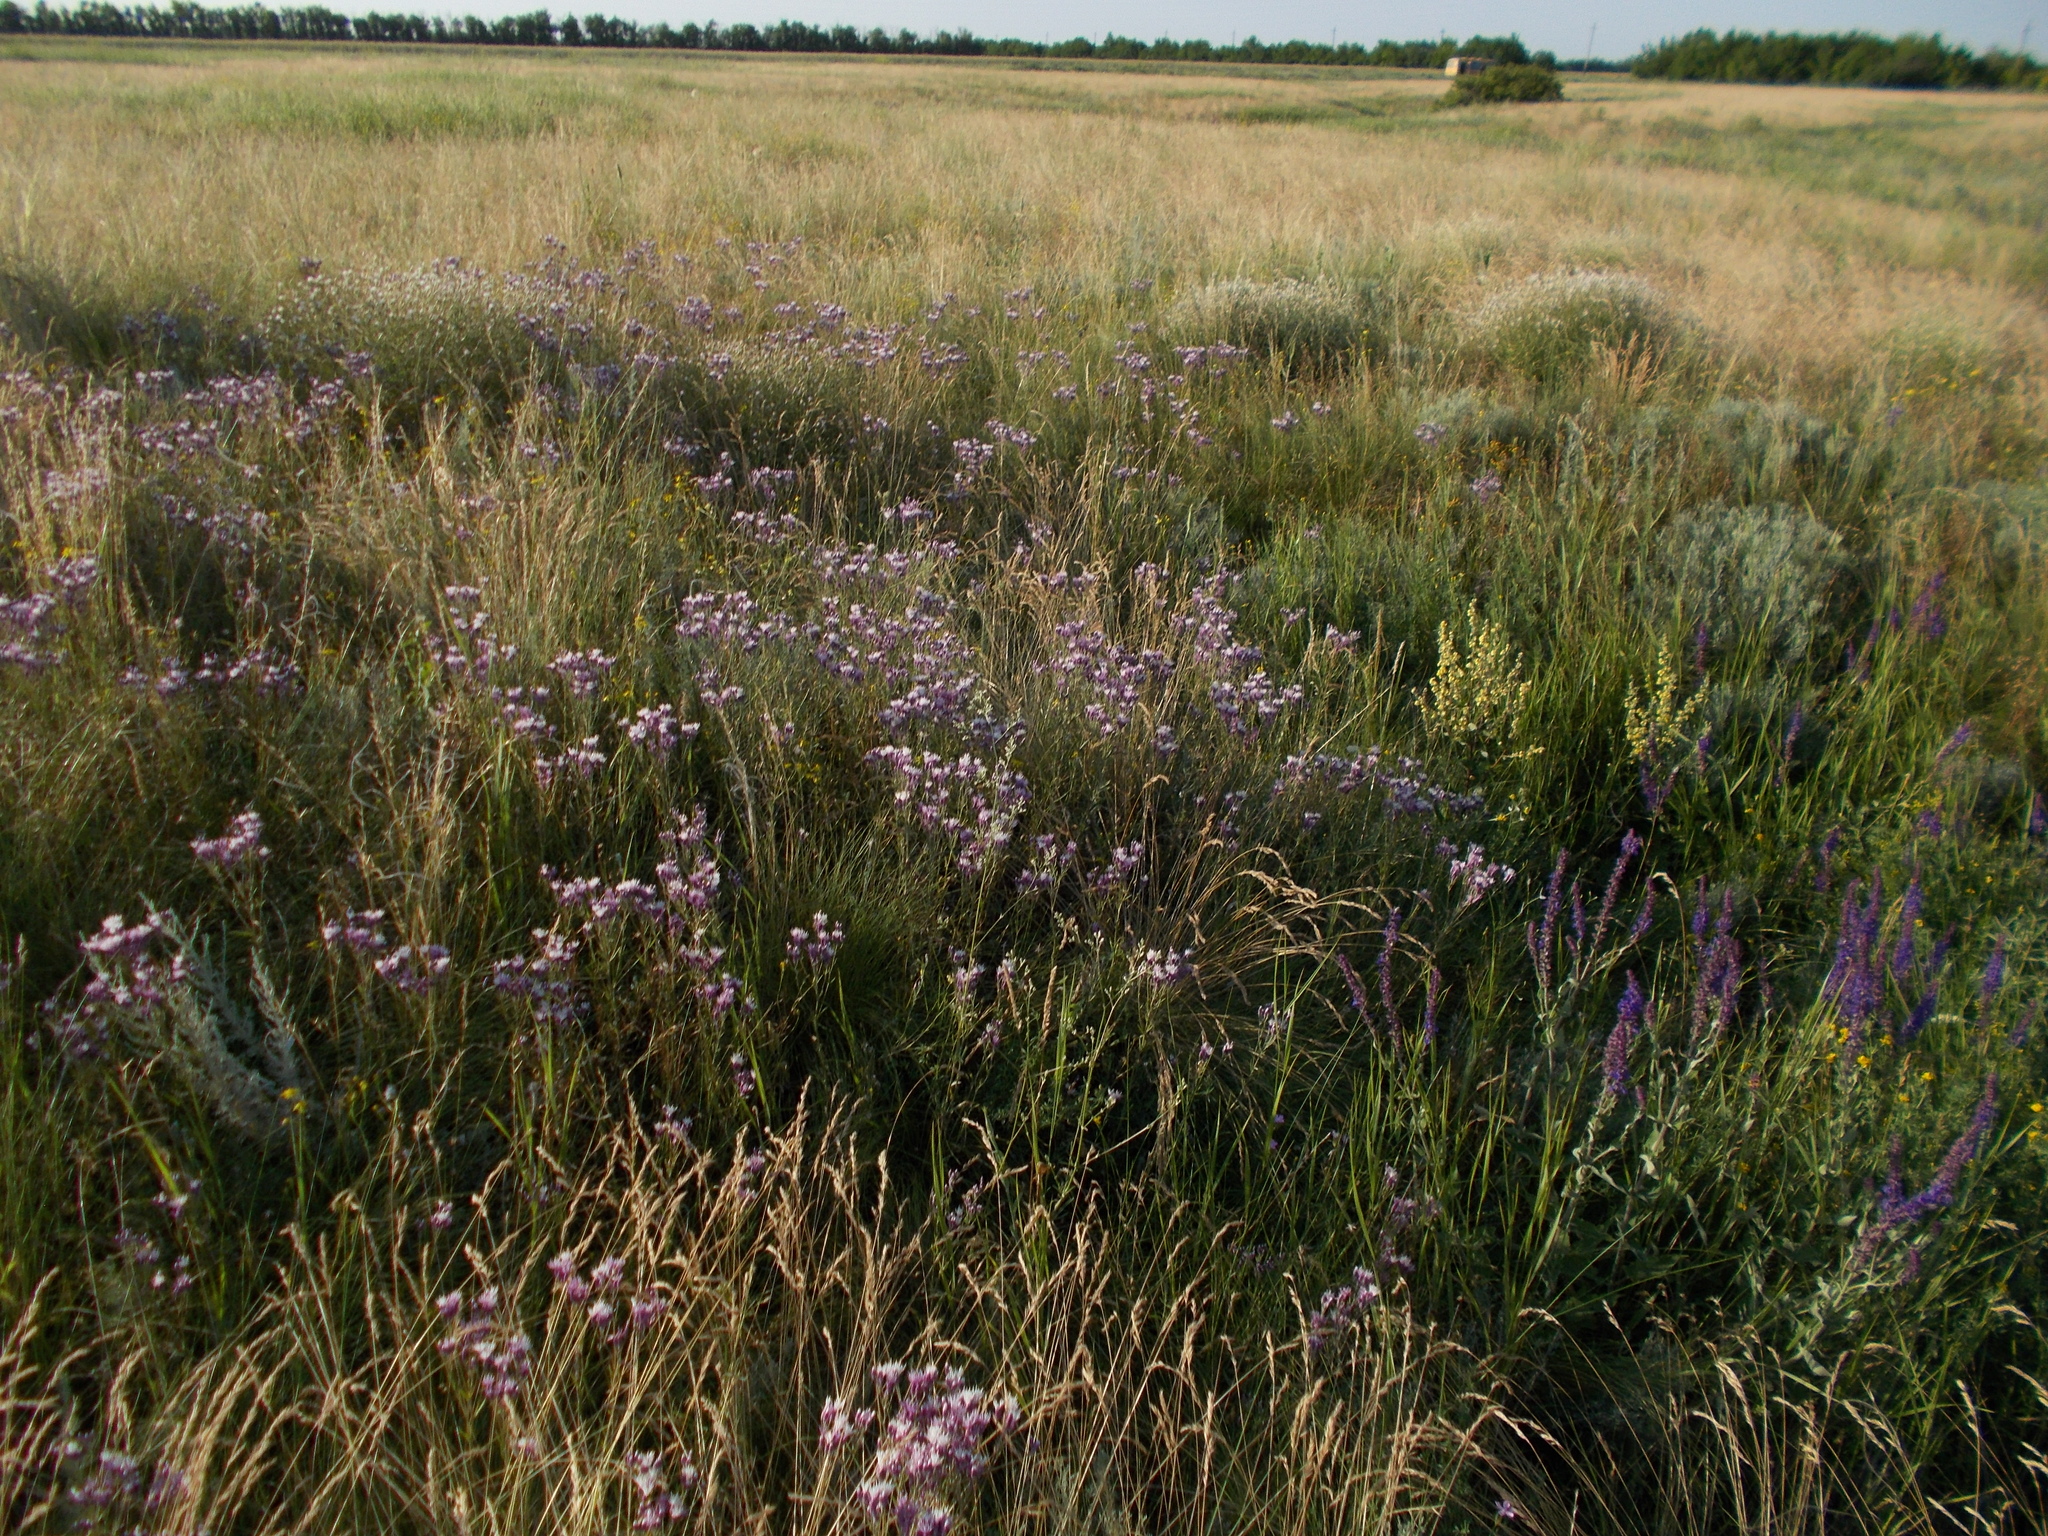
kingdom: Plantae
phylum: Tracheophyta
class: Magnoliopsida
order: Asterales
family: Asteraceae
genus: Jurinea
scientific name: Jurinea multiflora
